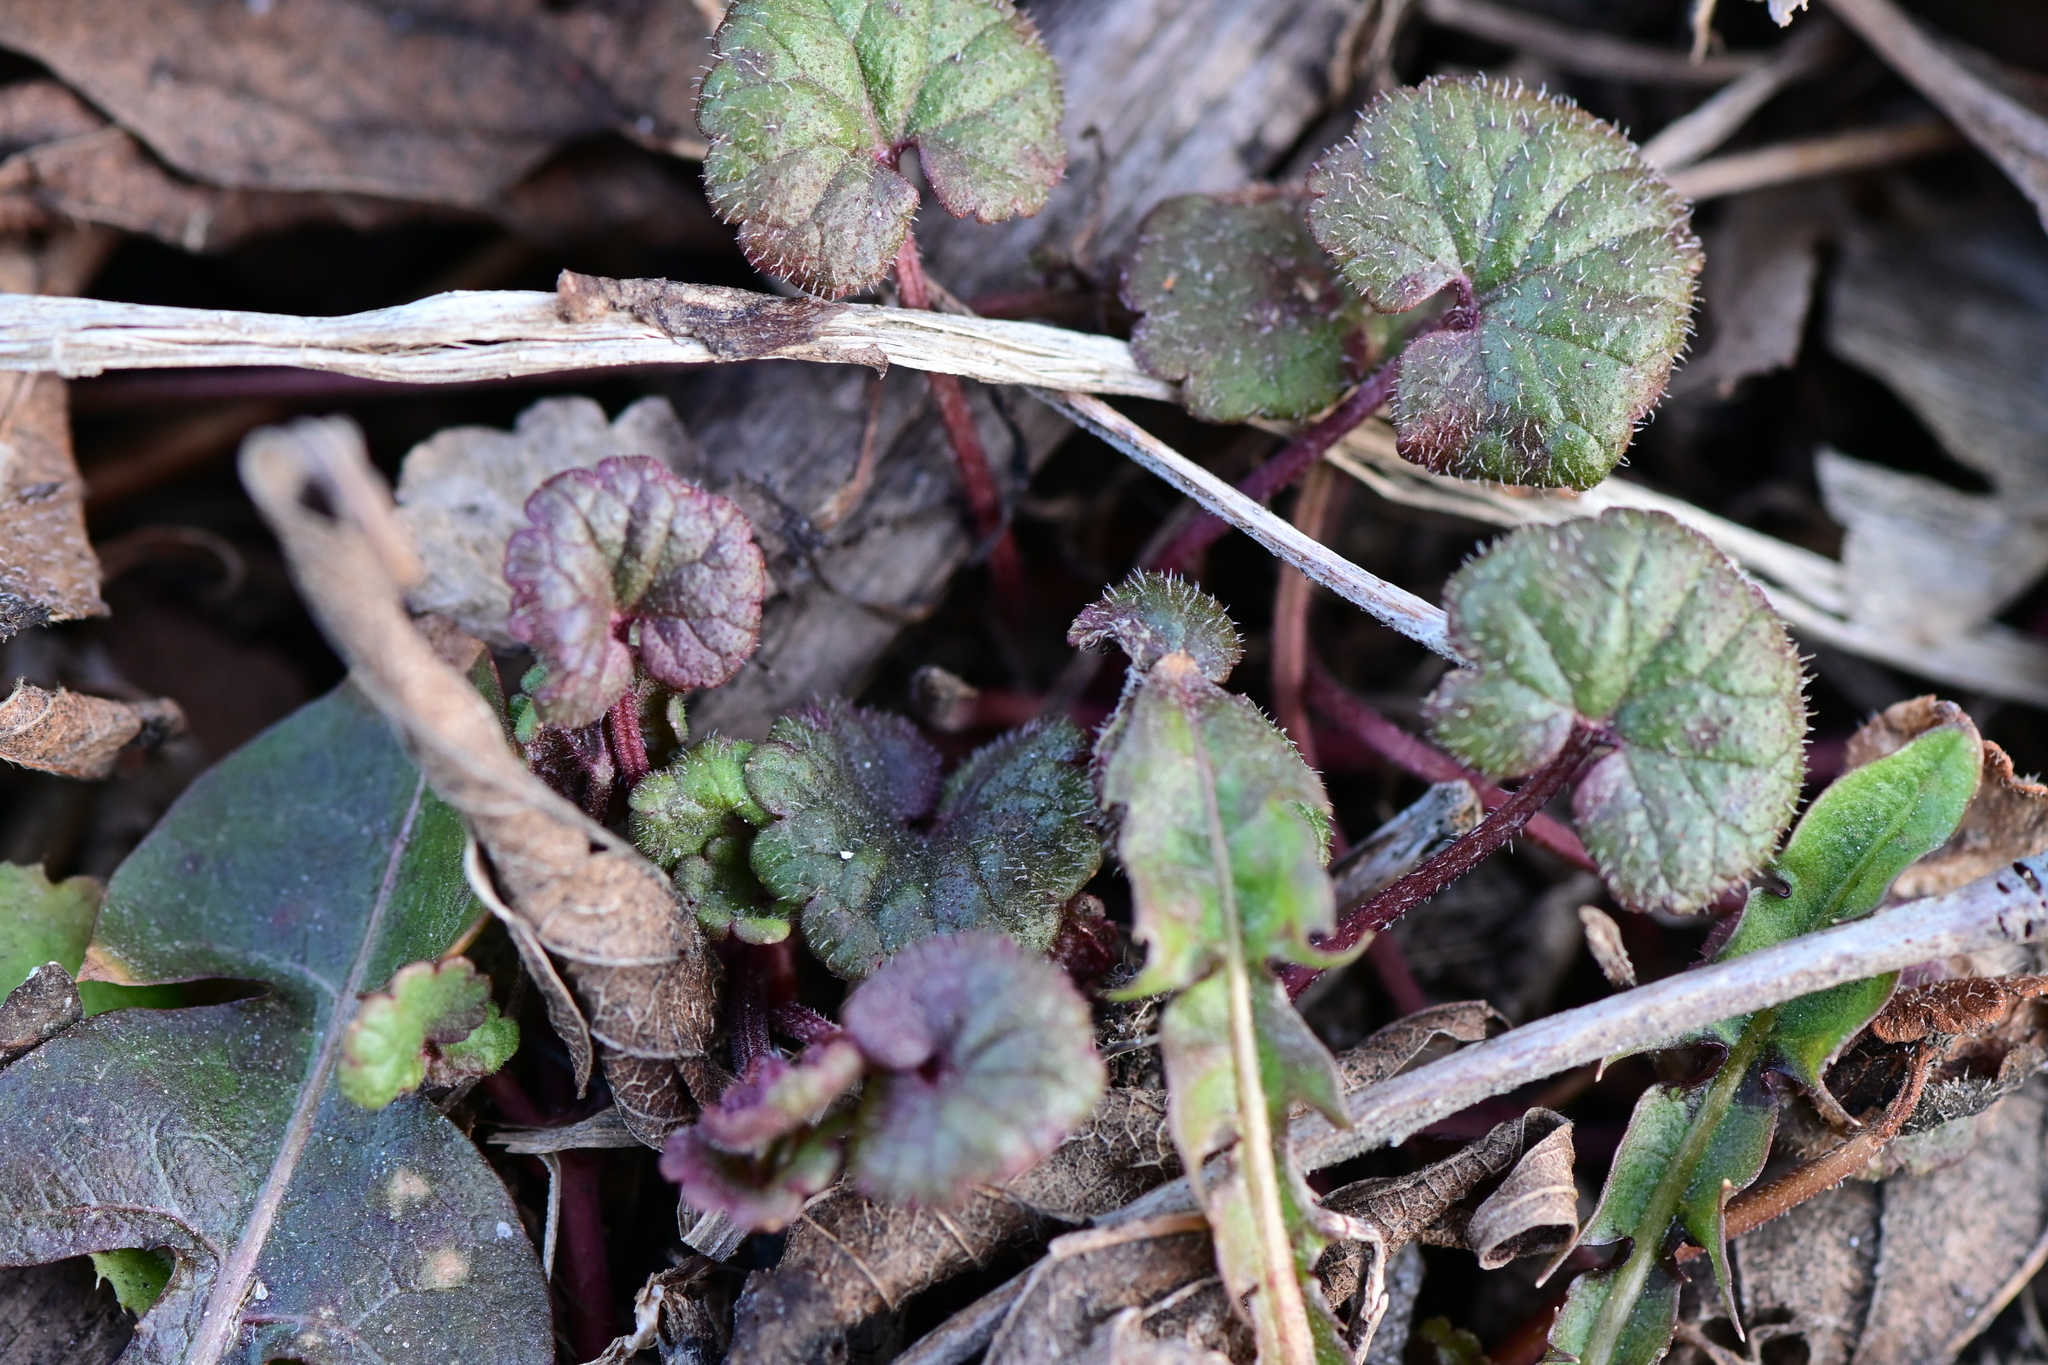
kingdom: Plantae
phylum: Tracheophyta
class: Magnoliopsida
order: Lamiales
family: Lamiaceae
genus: Glechoma
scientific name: Glechoma hederacea
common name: Ground ivy
